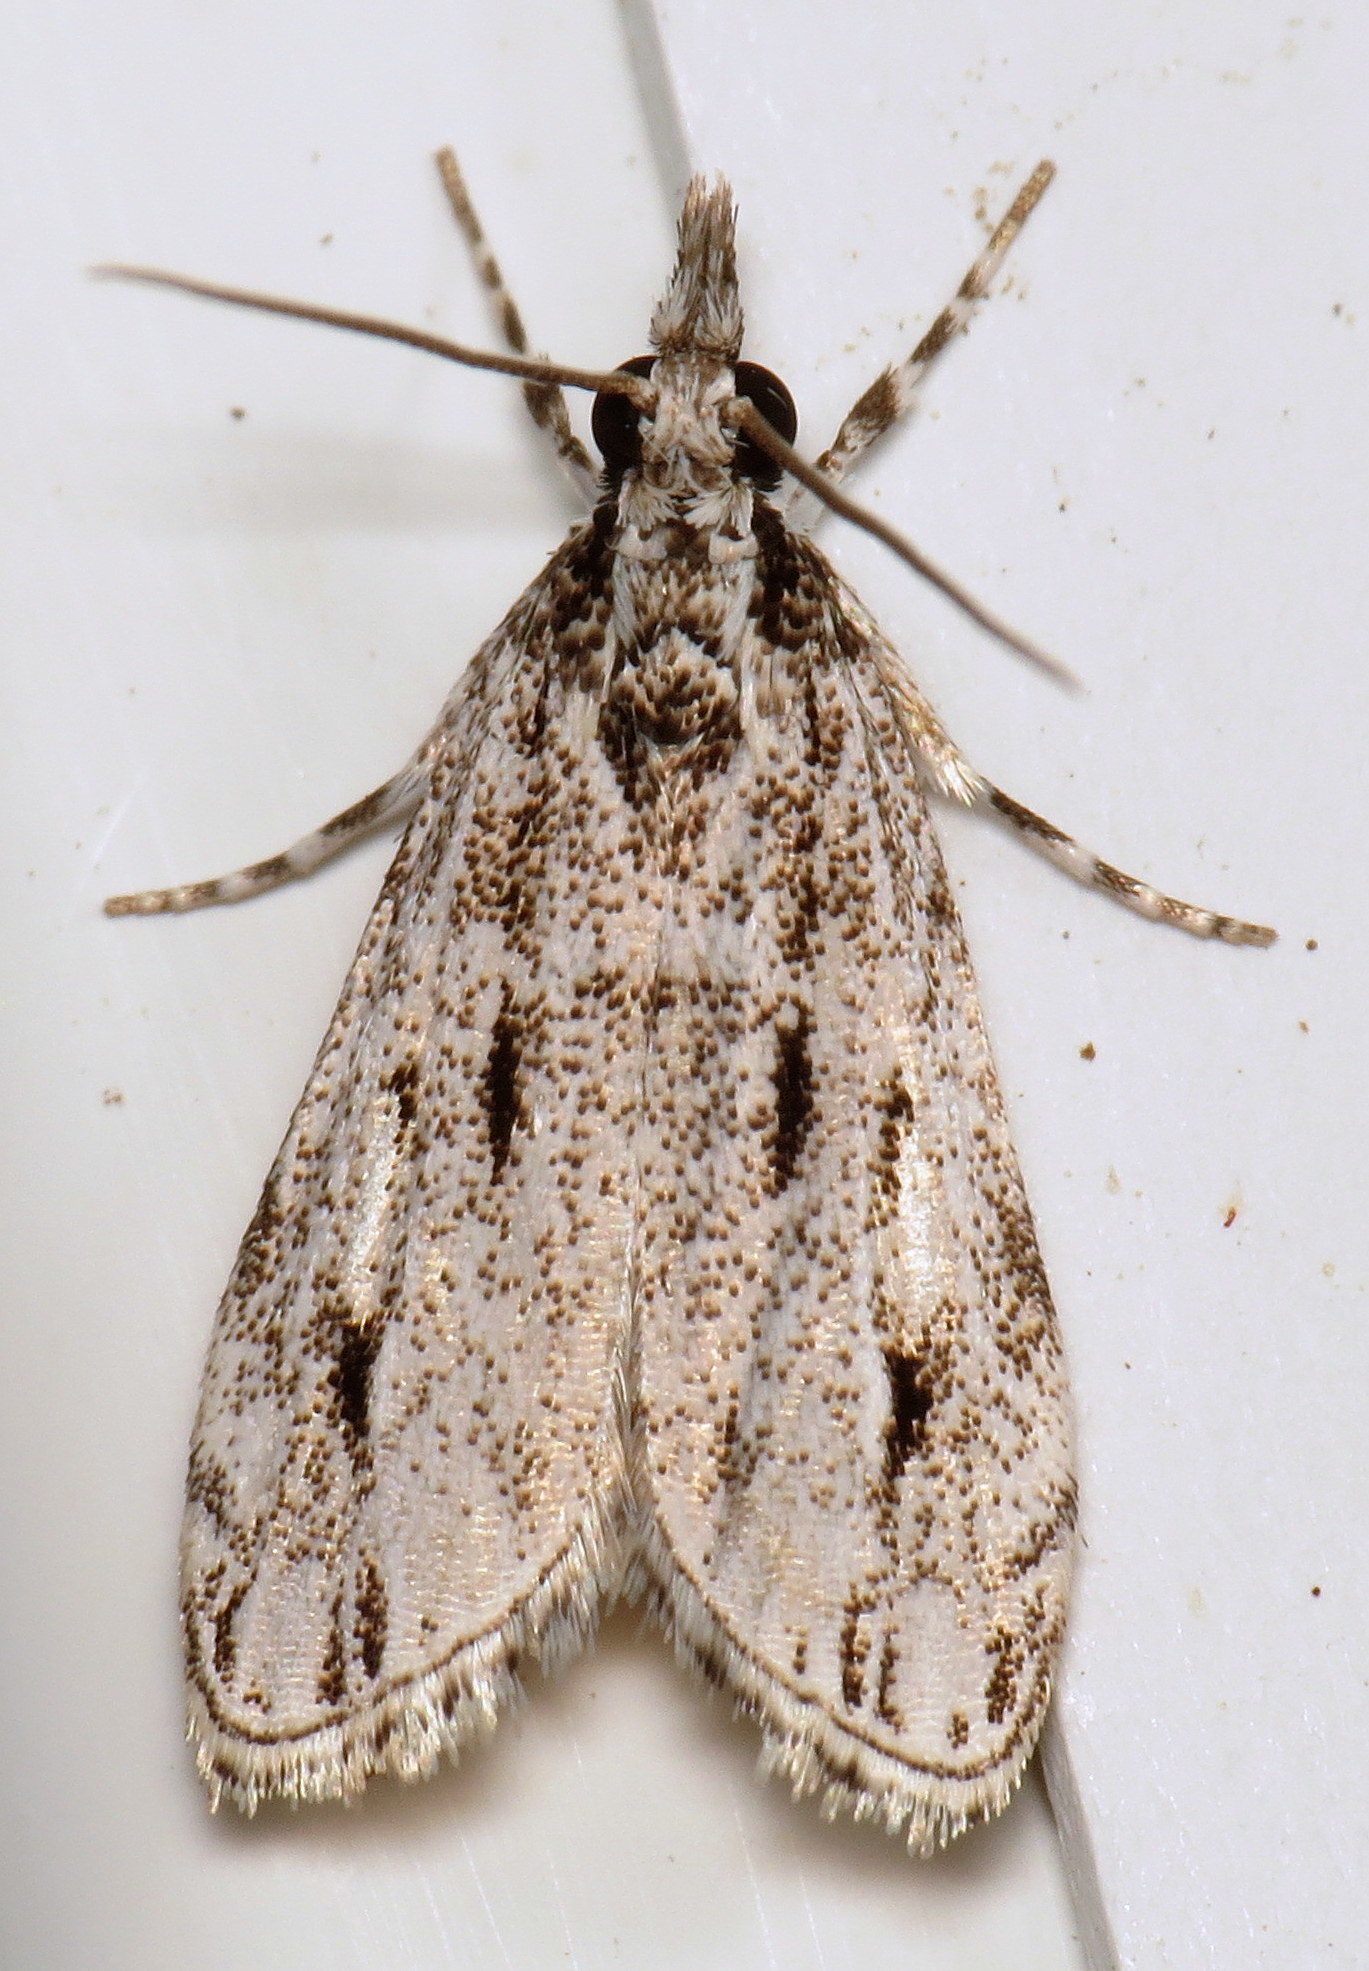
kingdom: Animalia
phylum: Arthropoda
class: Insecta
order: Lepidoptera
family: Crambidae
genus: Eudonia
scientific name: Eudonia strigalis
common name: Striped eudonia moth
